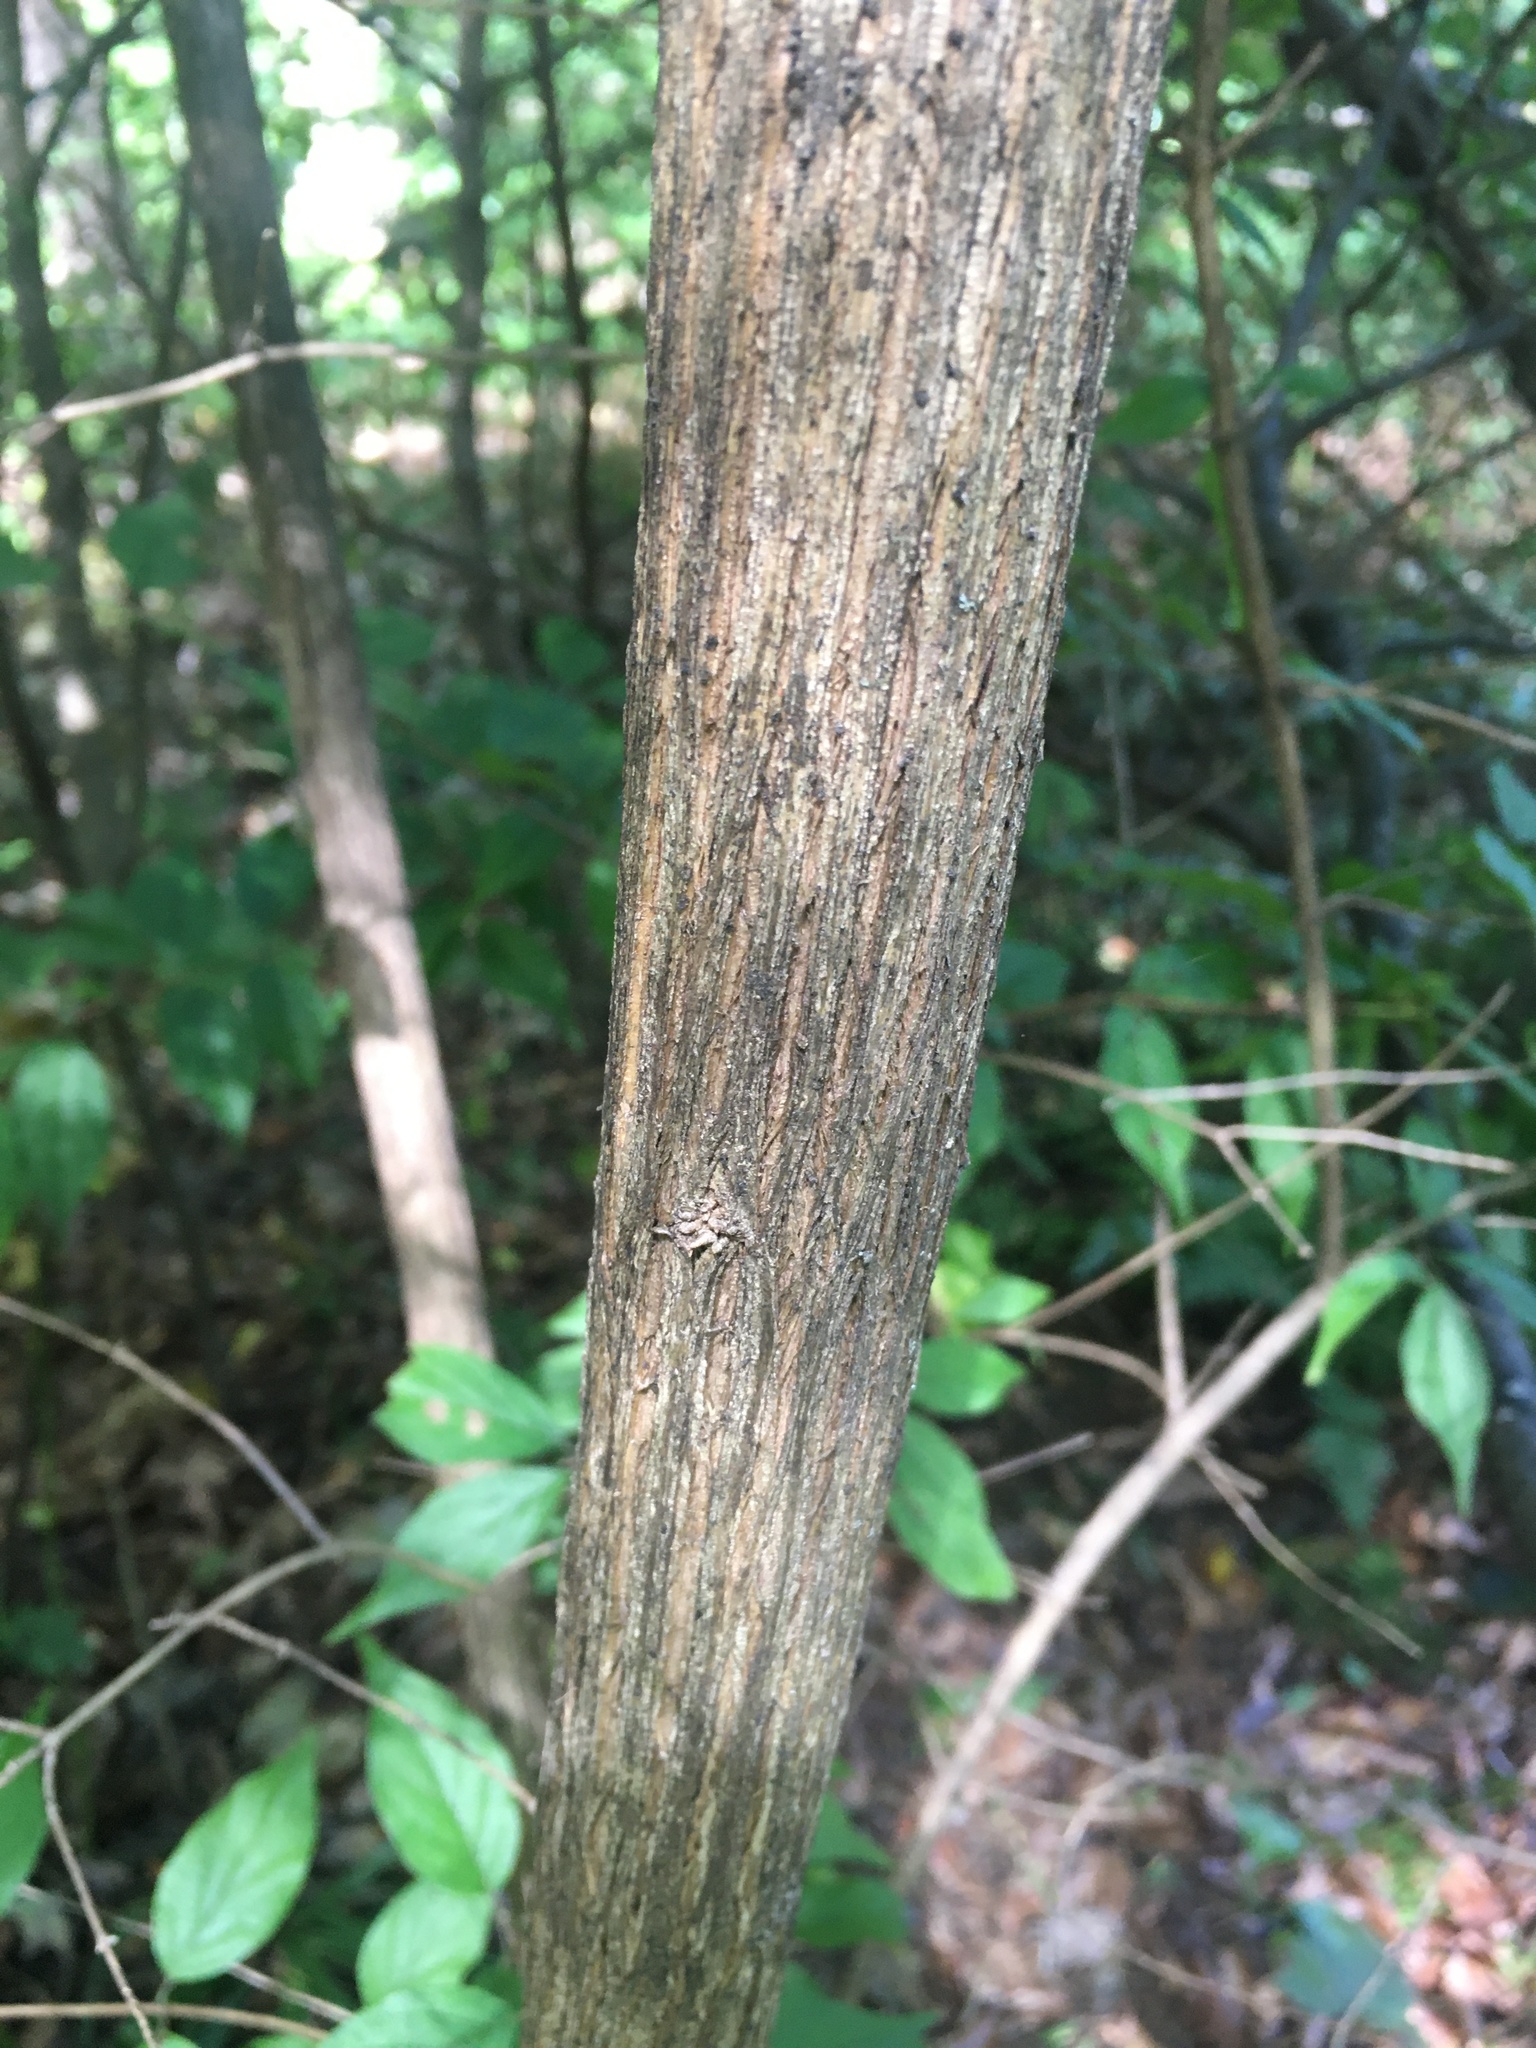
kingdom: Plantae
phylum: Tracheophyta
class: Magnoliopsida
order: Dipsacales
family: Caprifoliaceae
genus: Lonicera
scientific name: Lonicera maackii
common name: Amur honeysuckle
